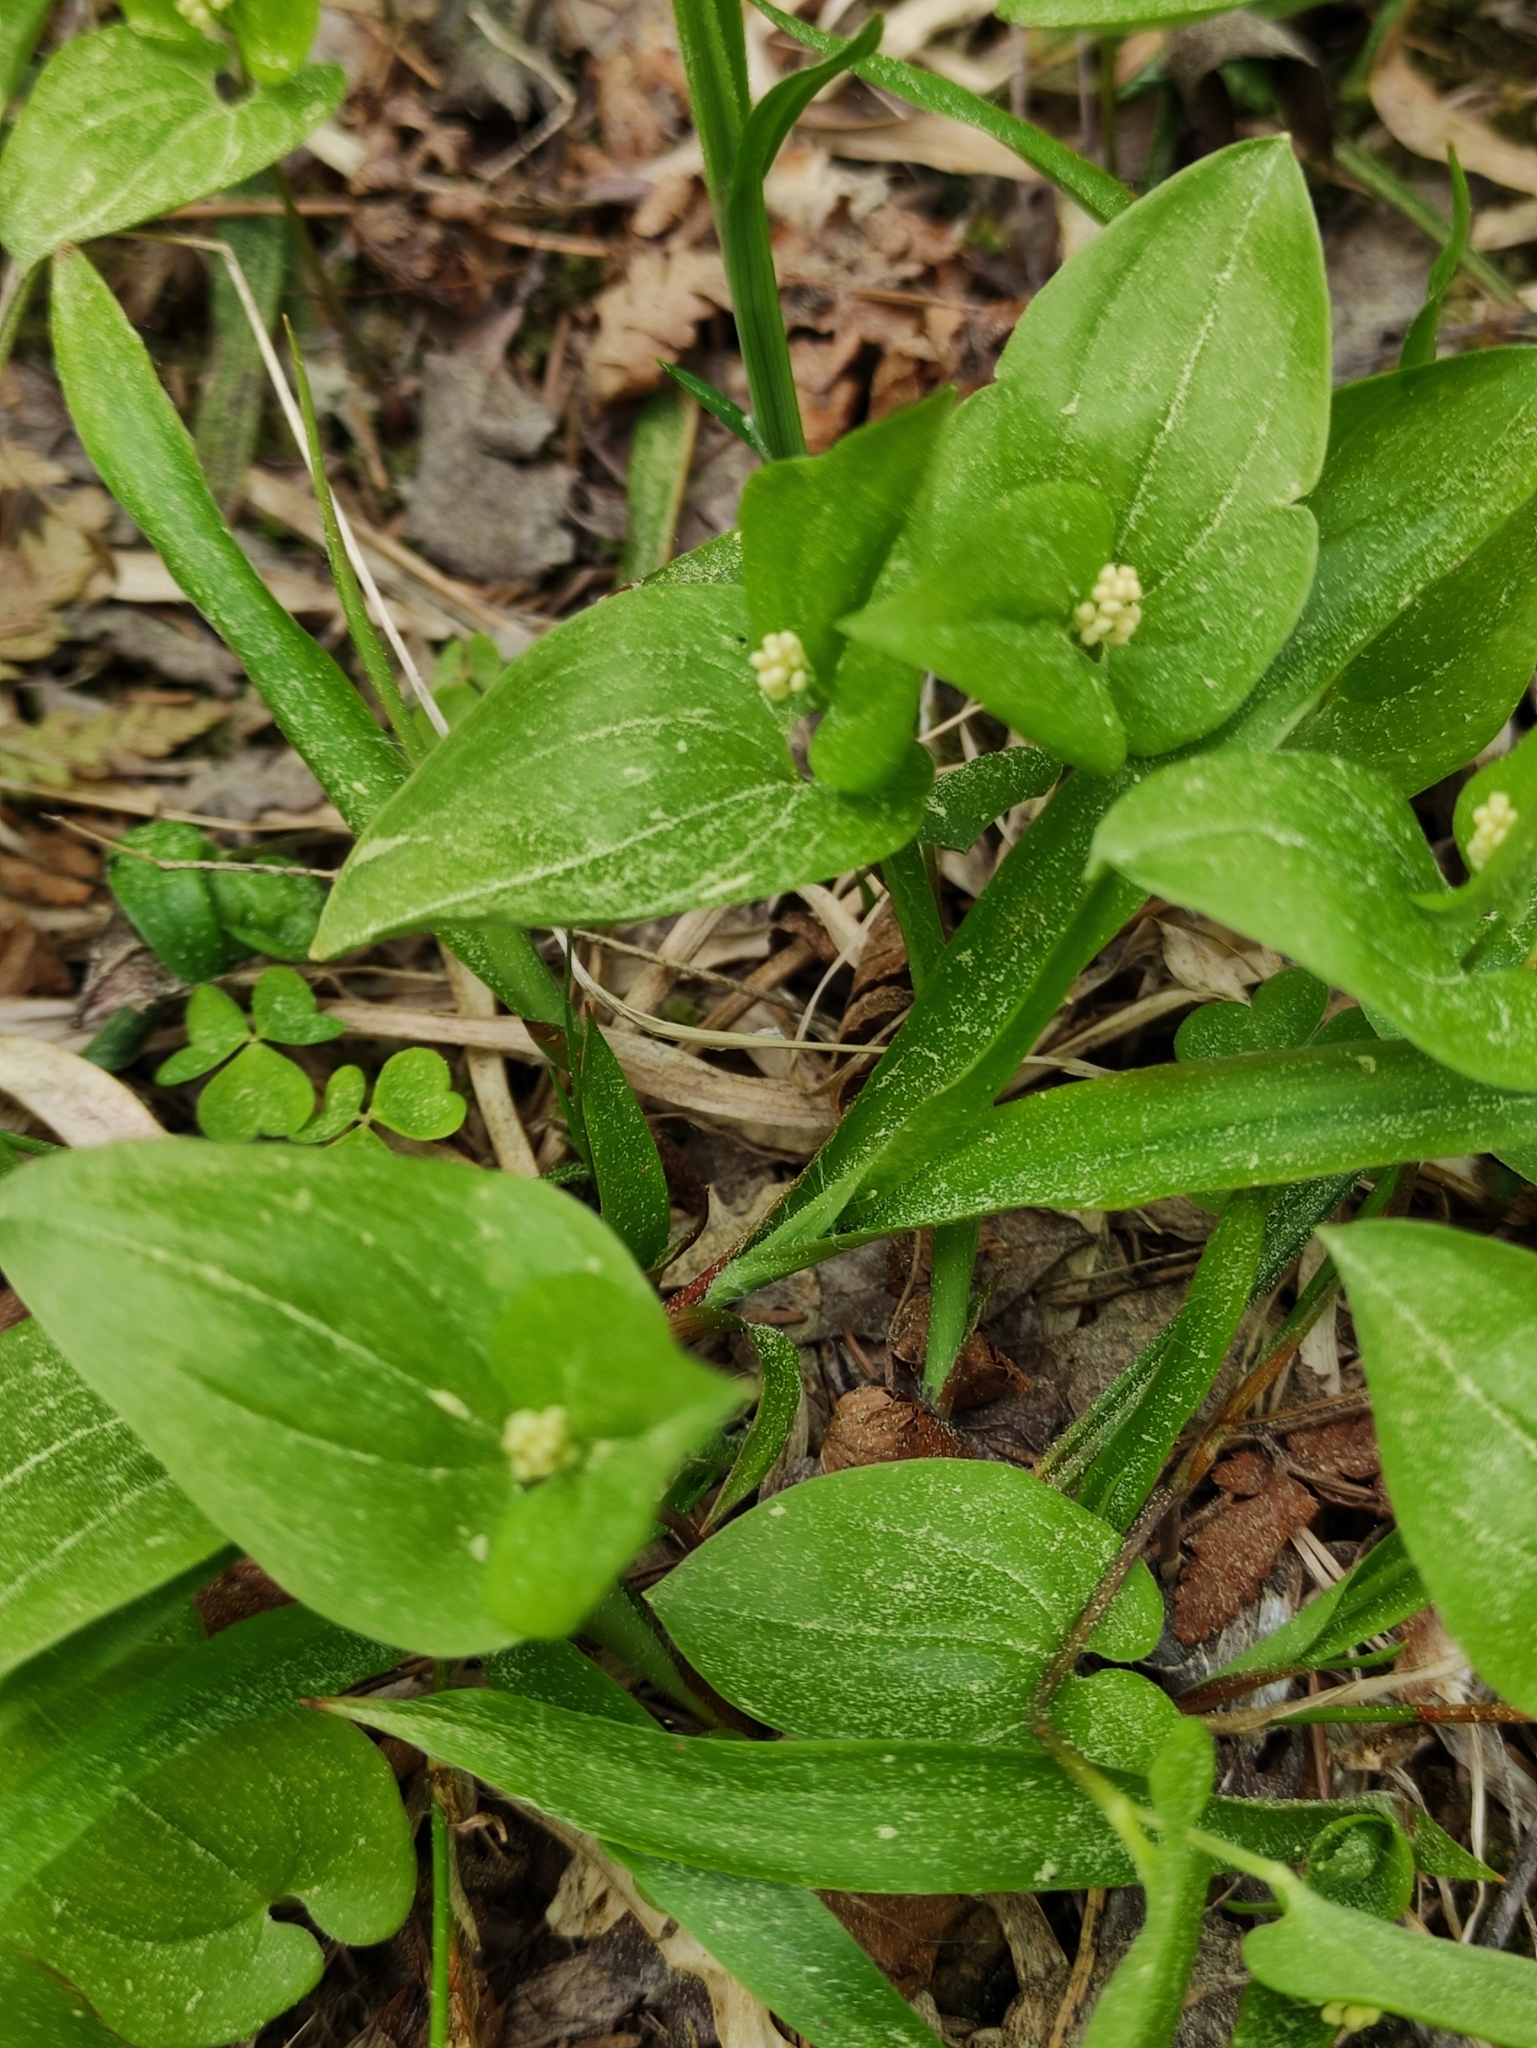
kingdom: Plantae
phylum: Tracheophyta
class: Liliopsida
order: Asparagales
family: Asparagaceae
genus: Maianthemum
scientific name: Maianthemum bifolium
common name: May lily
